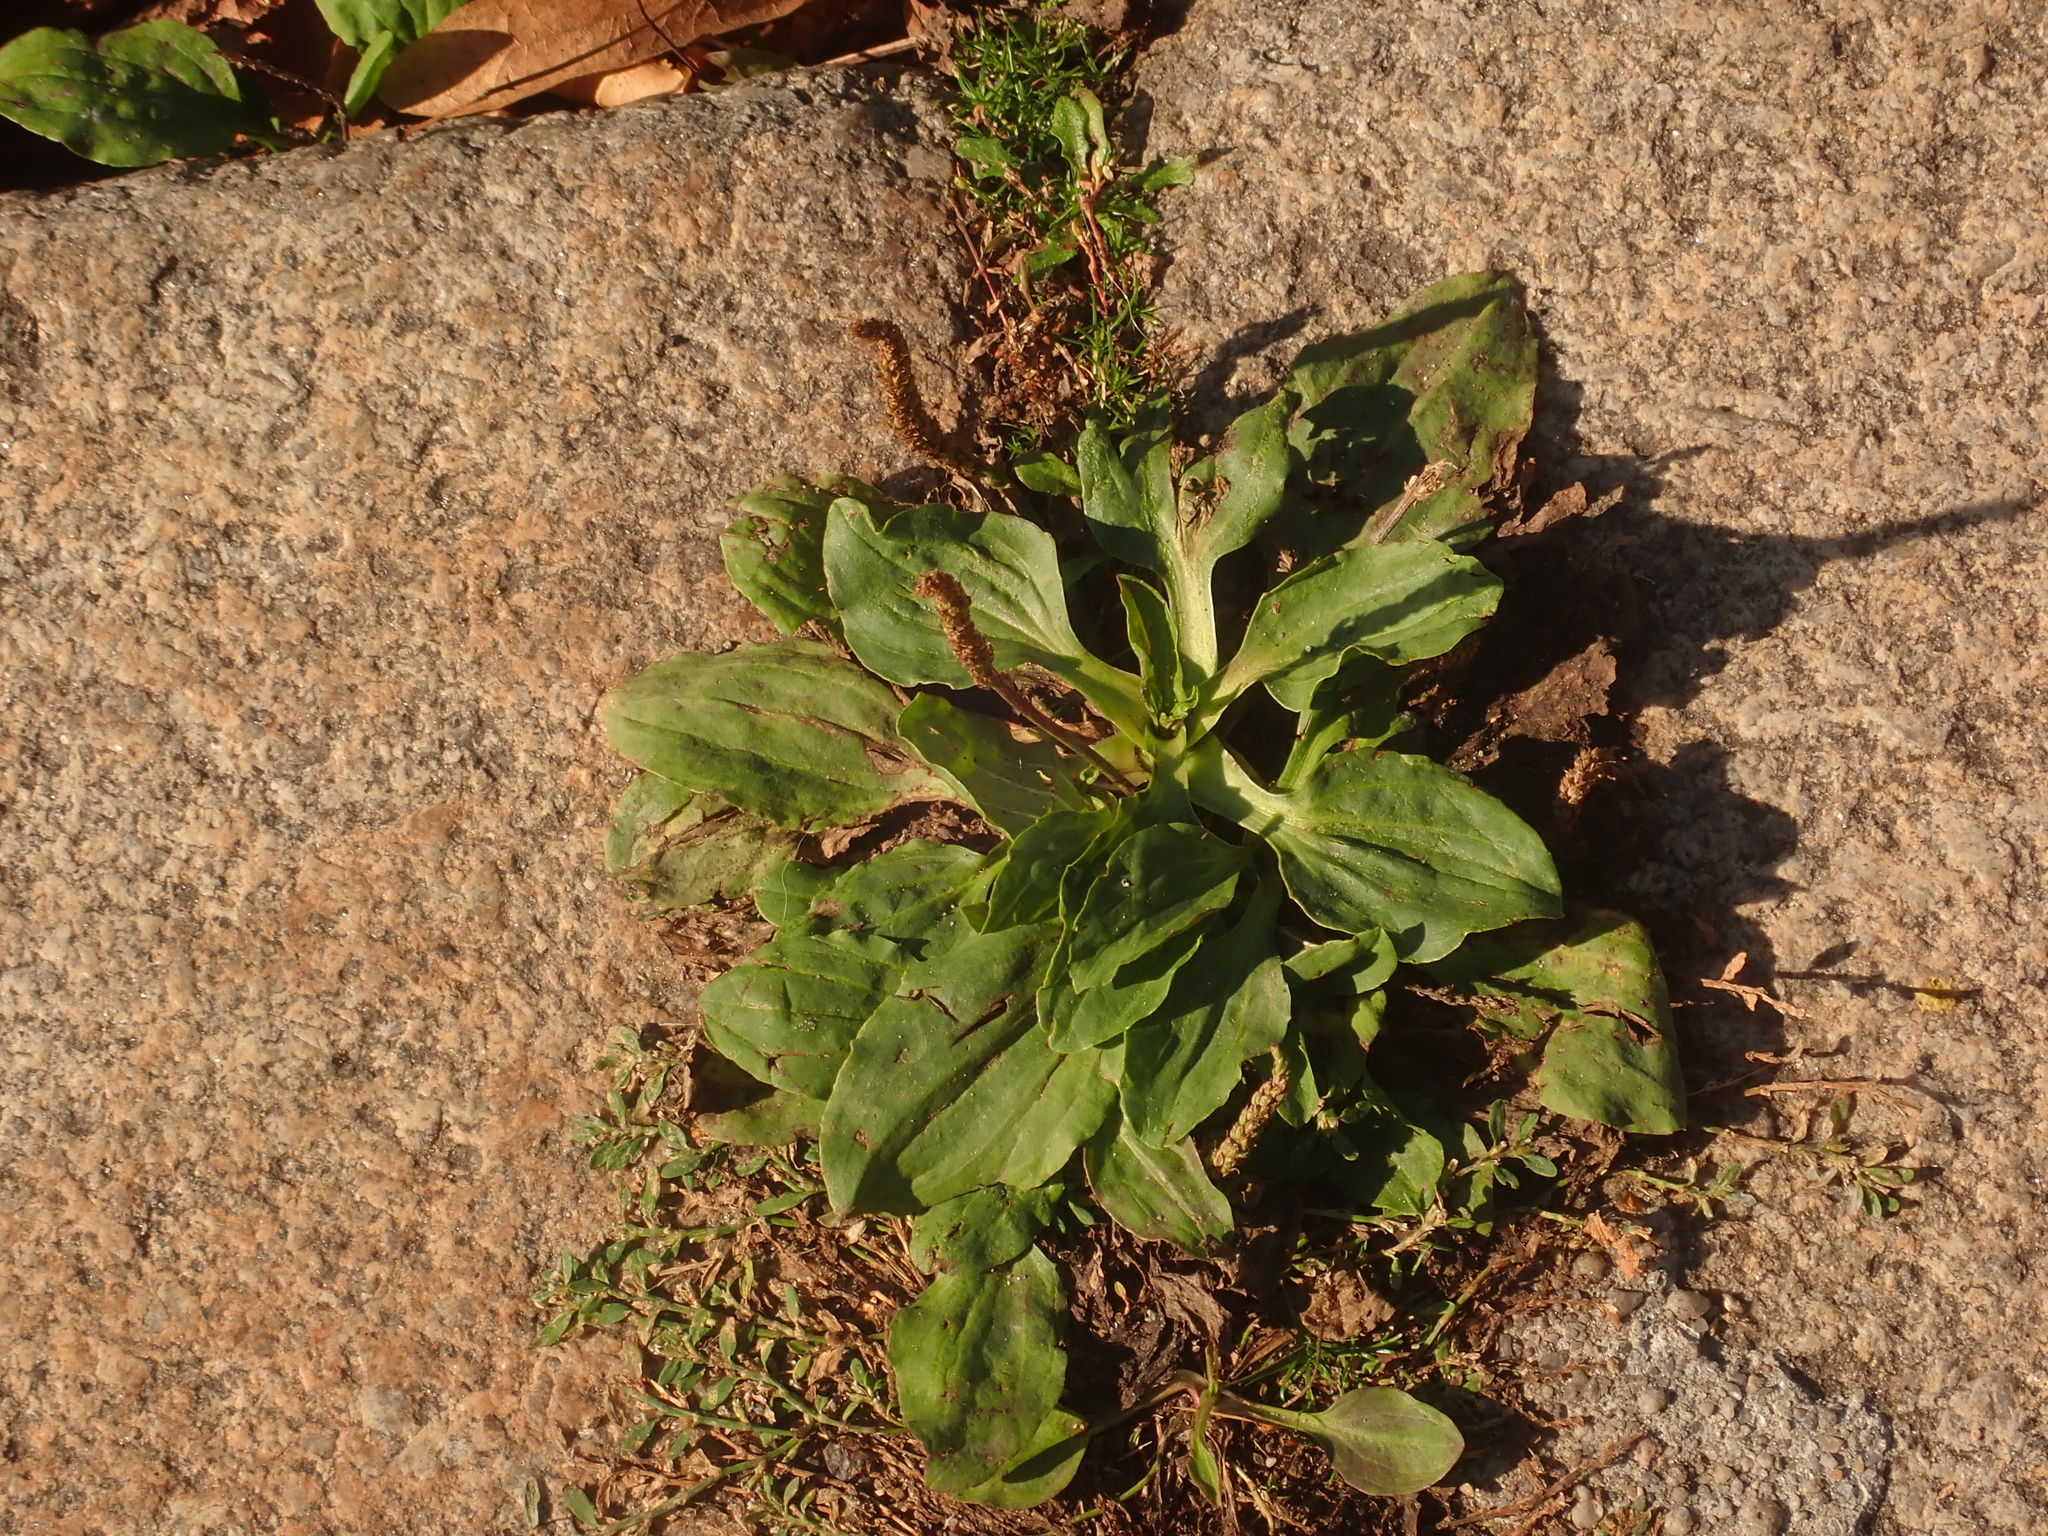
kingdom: Plantae
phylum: Tracheophyta
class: Magnoliopsida
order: Lamiales
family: Plantaginaceae
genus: Plantago
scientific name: Plantago major
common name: Common plantain
